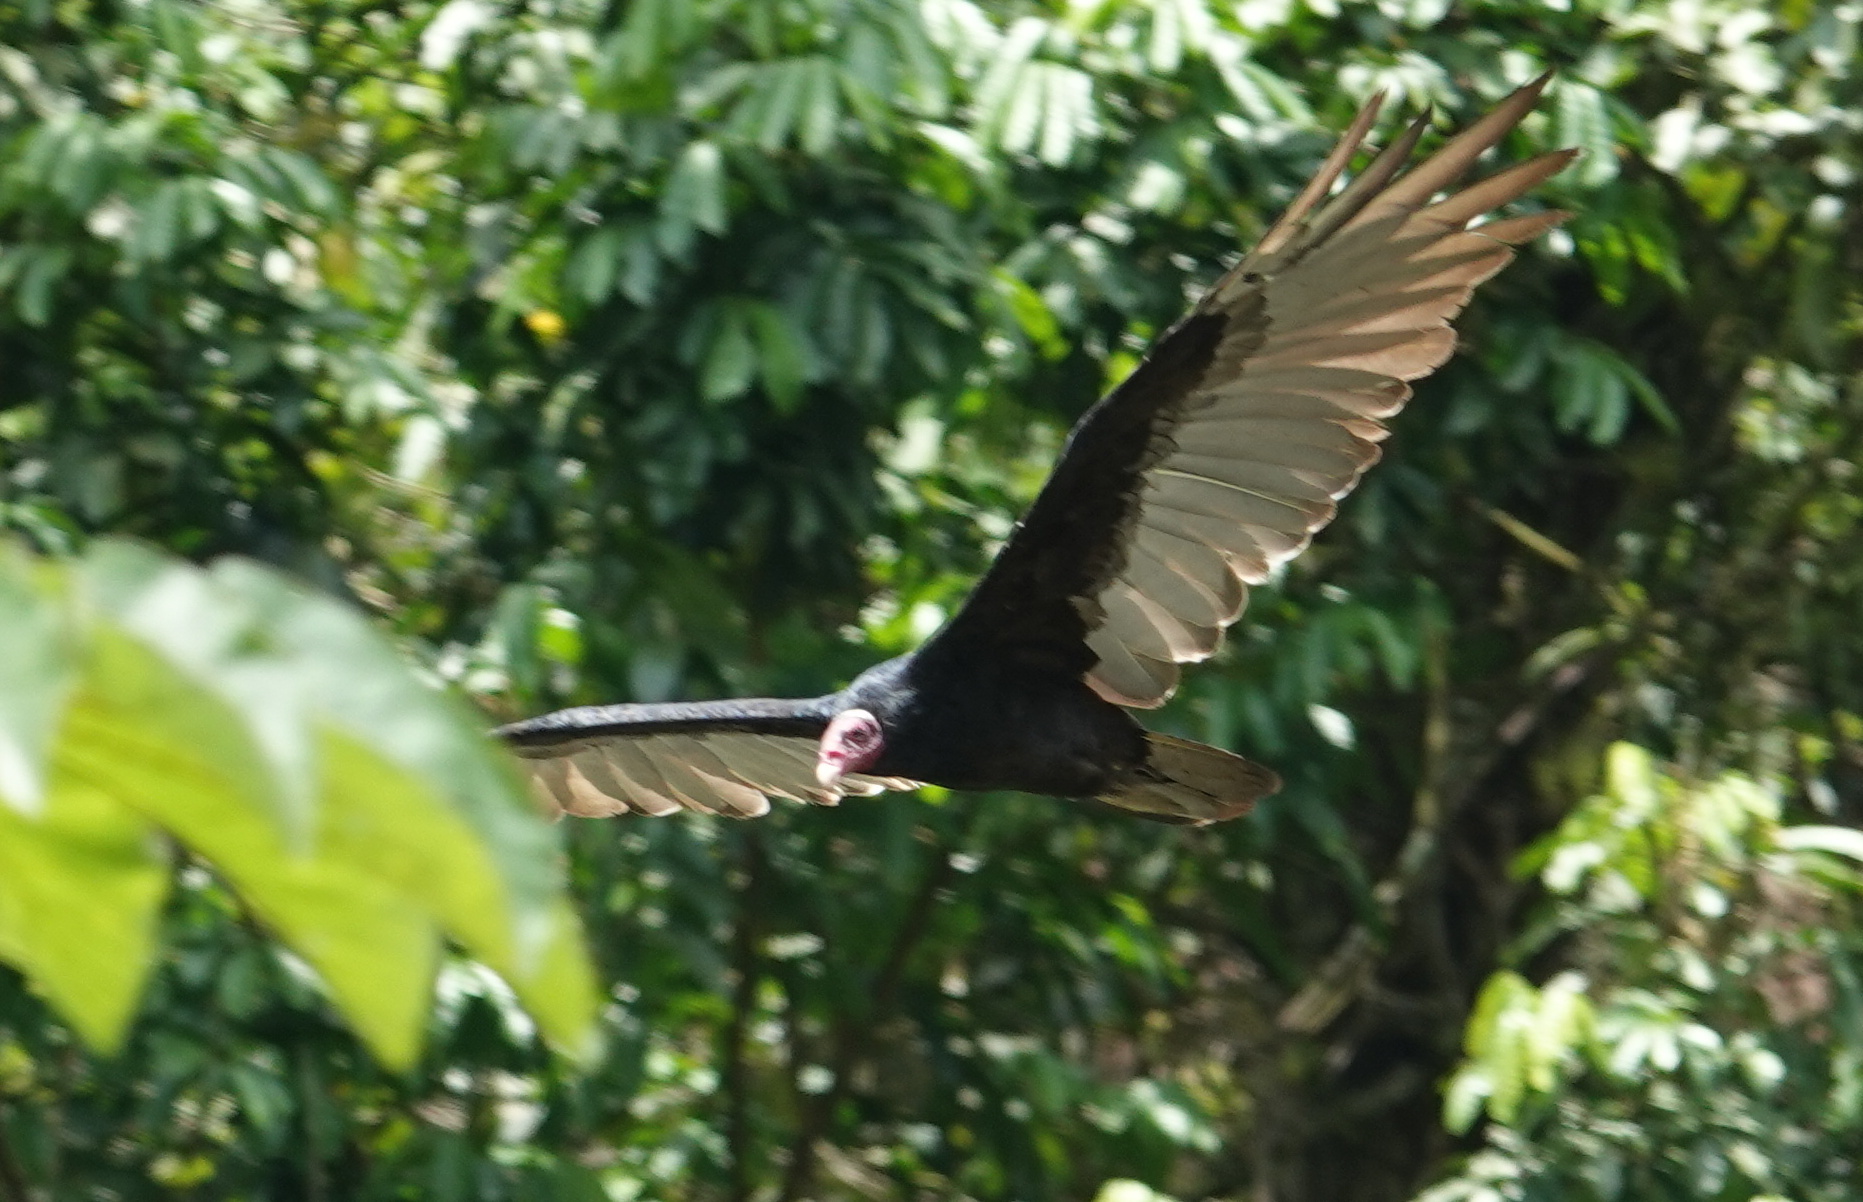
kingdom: Animalia
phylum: Chordata
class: Aves
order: Accipitriformes
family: Cathartidae
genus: Cathartes
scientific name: Cathartes aura
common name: Turkey vulture
